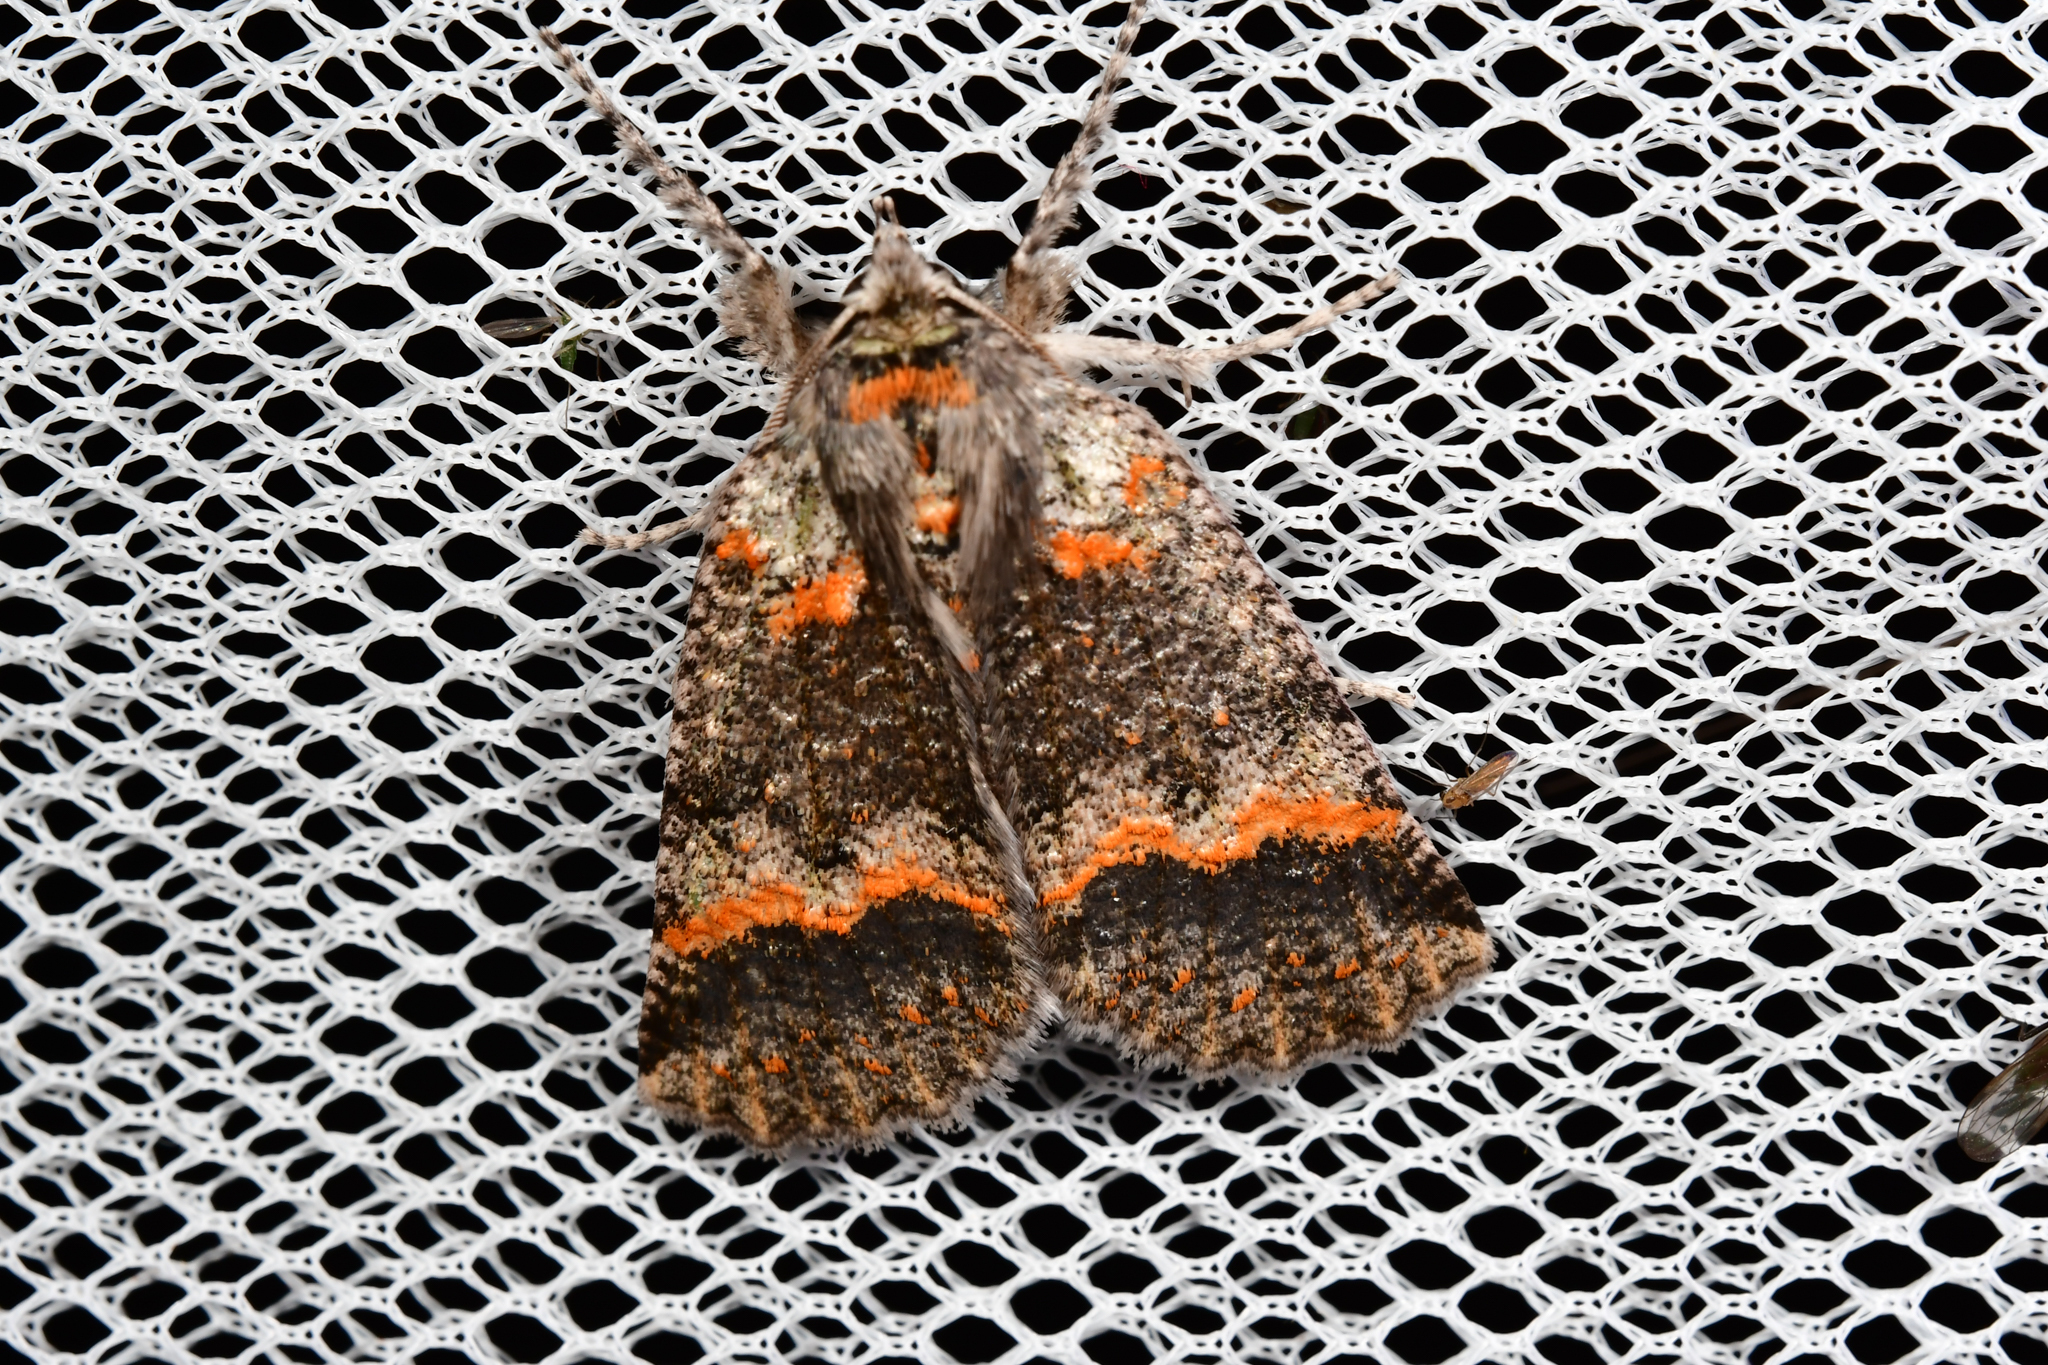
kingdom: Animalia
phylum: Arthropoda
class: Insecta
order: Lepidoptera
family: Geometridae
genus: Declana
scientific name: Declana floccosa
